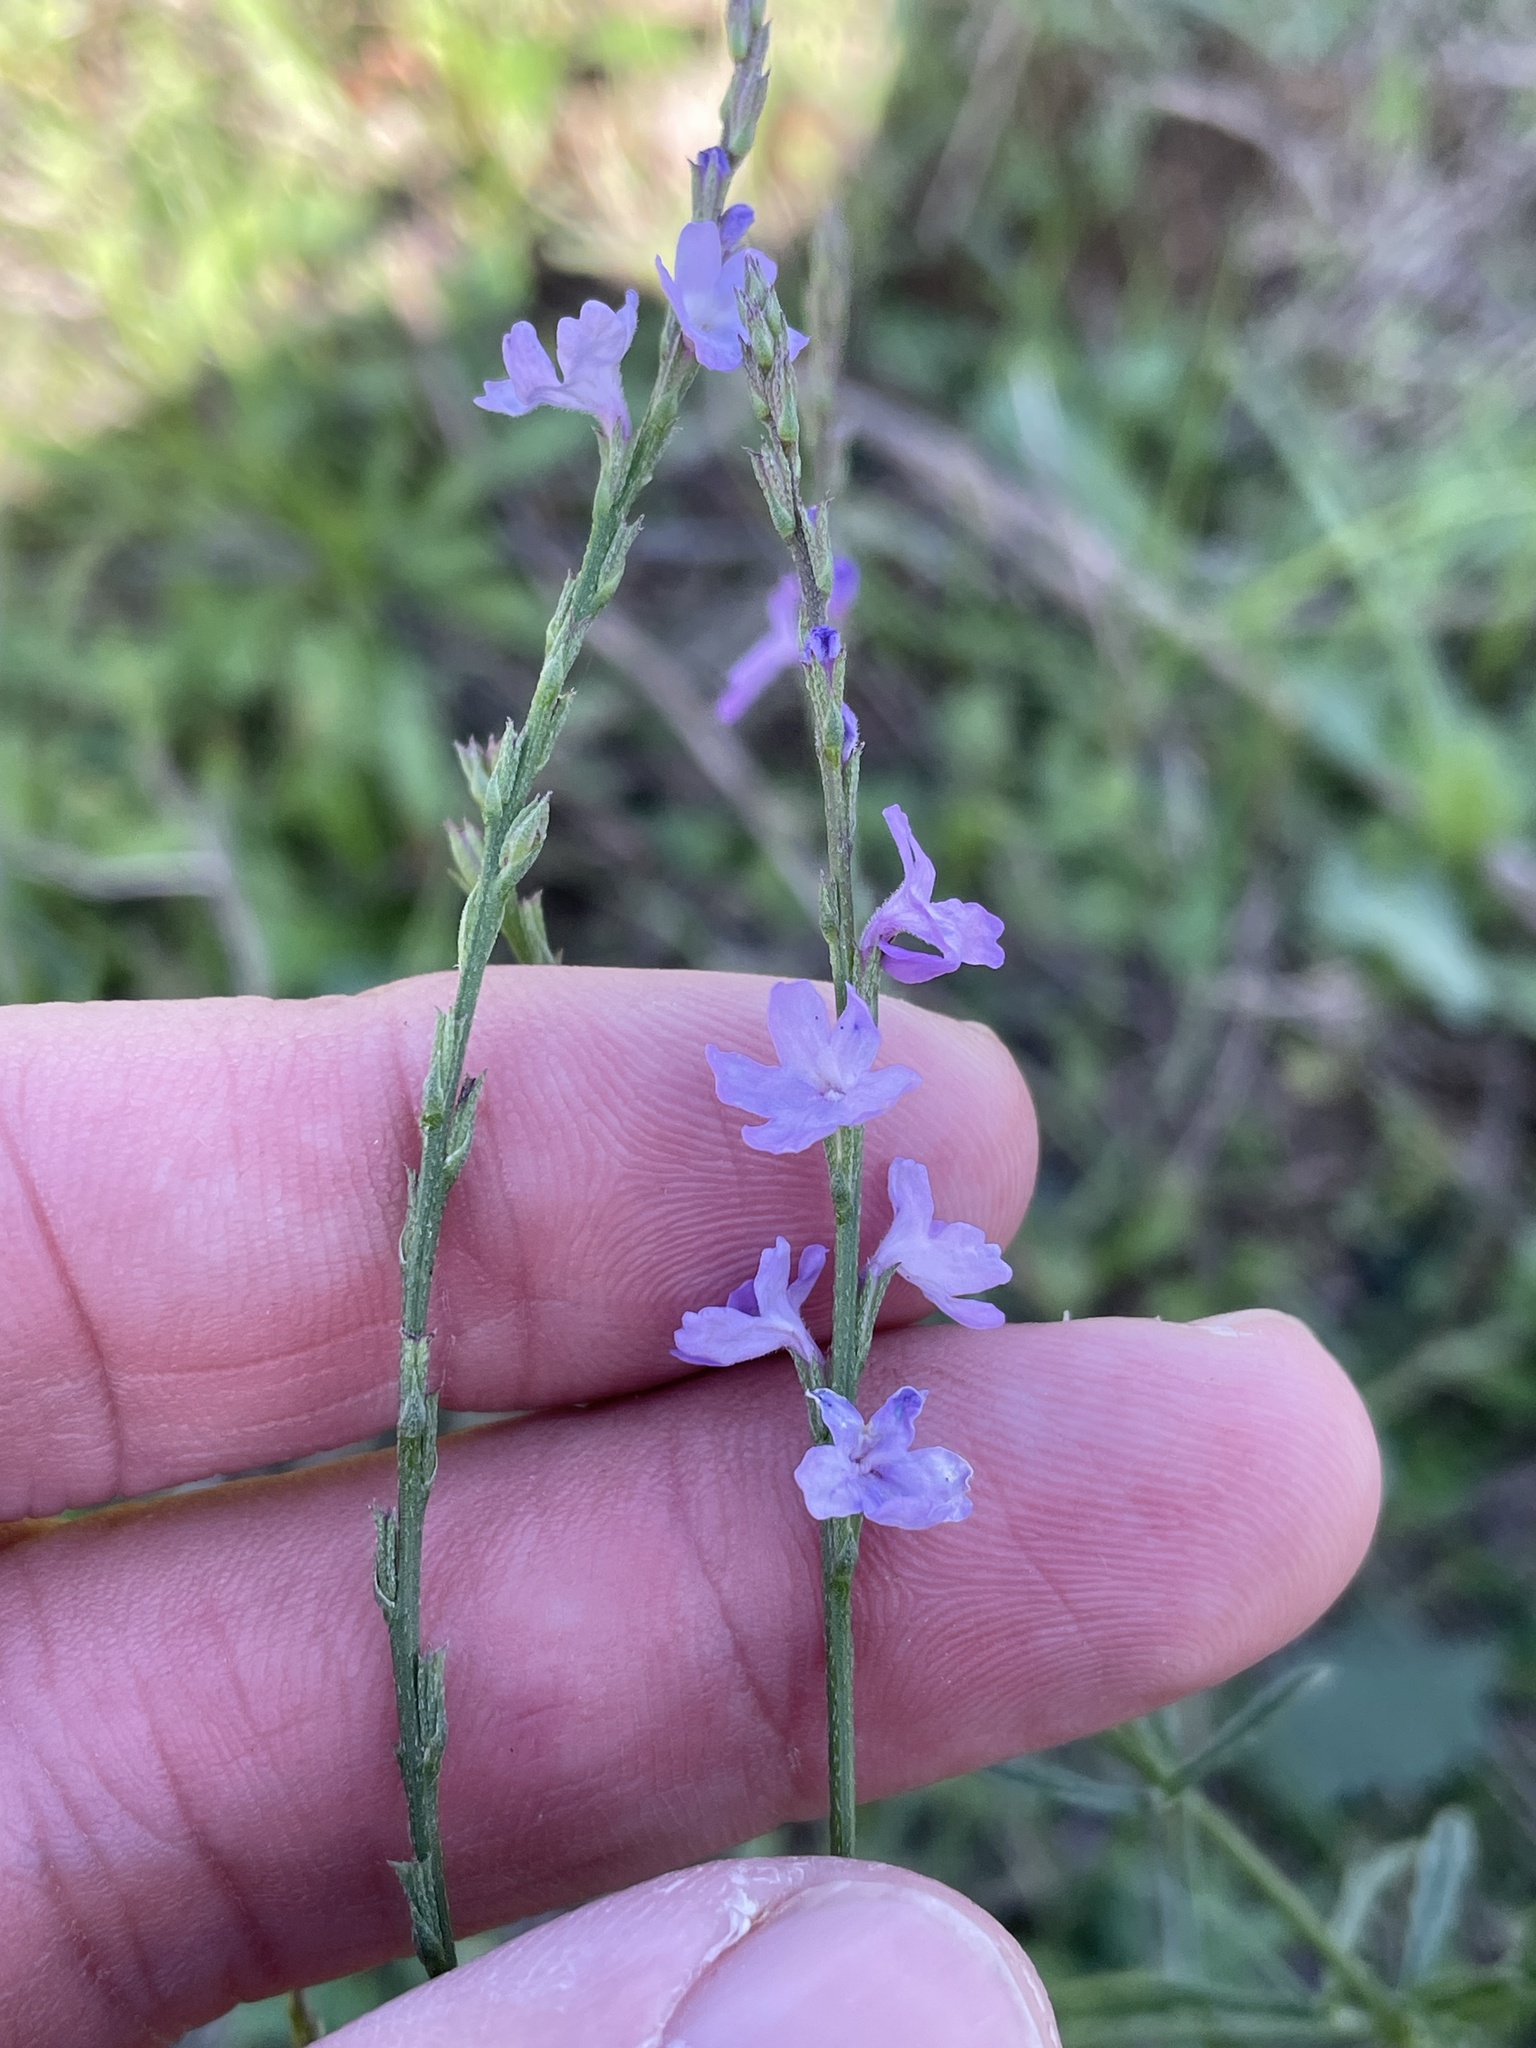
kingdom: Plantae
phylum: Tracheophyta
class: Magnoliopsida
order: Lamiales
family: Verbenaceae
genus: Verbena
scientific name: Verbena halei
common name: Texas vervain
